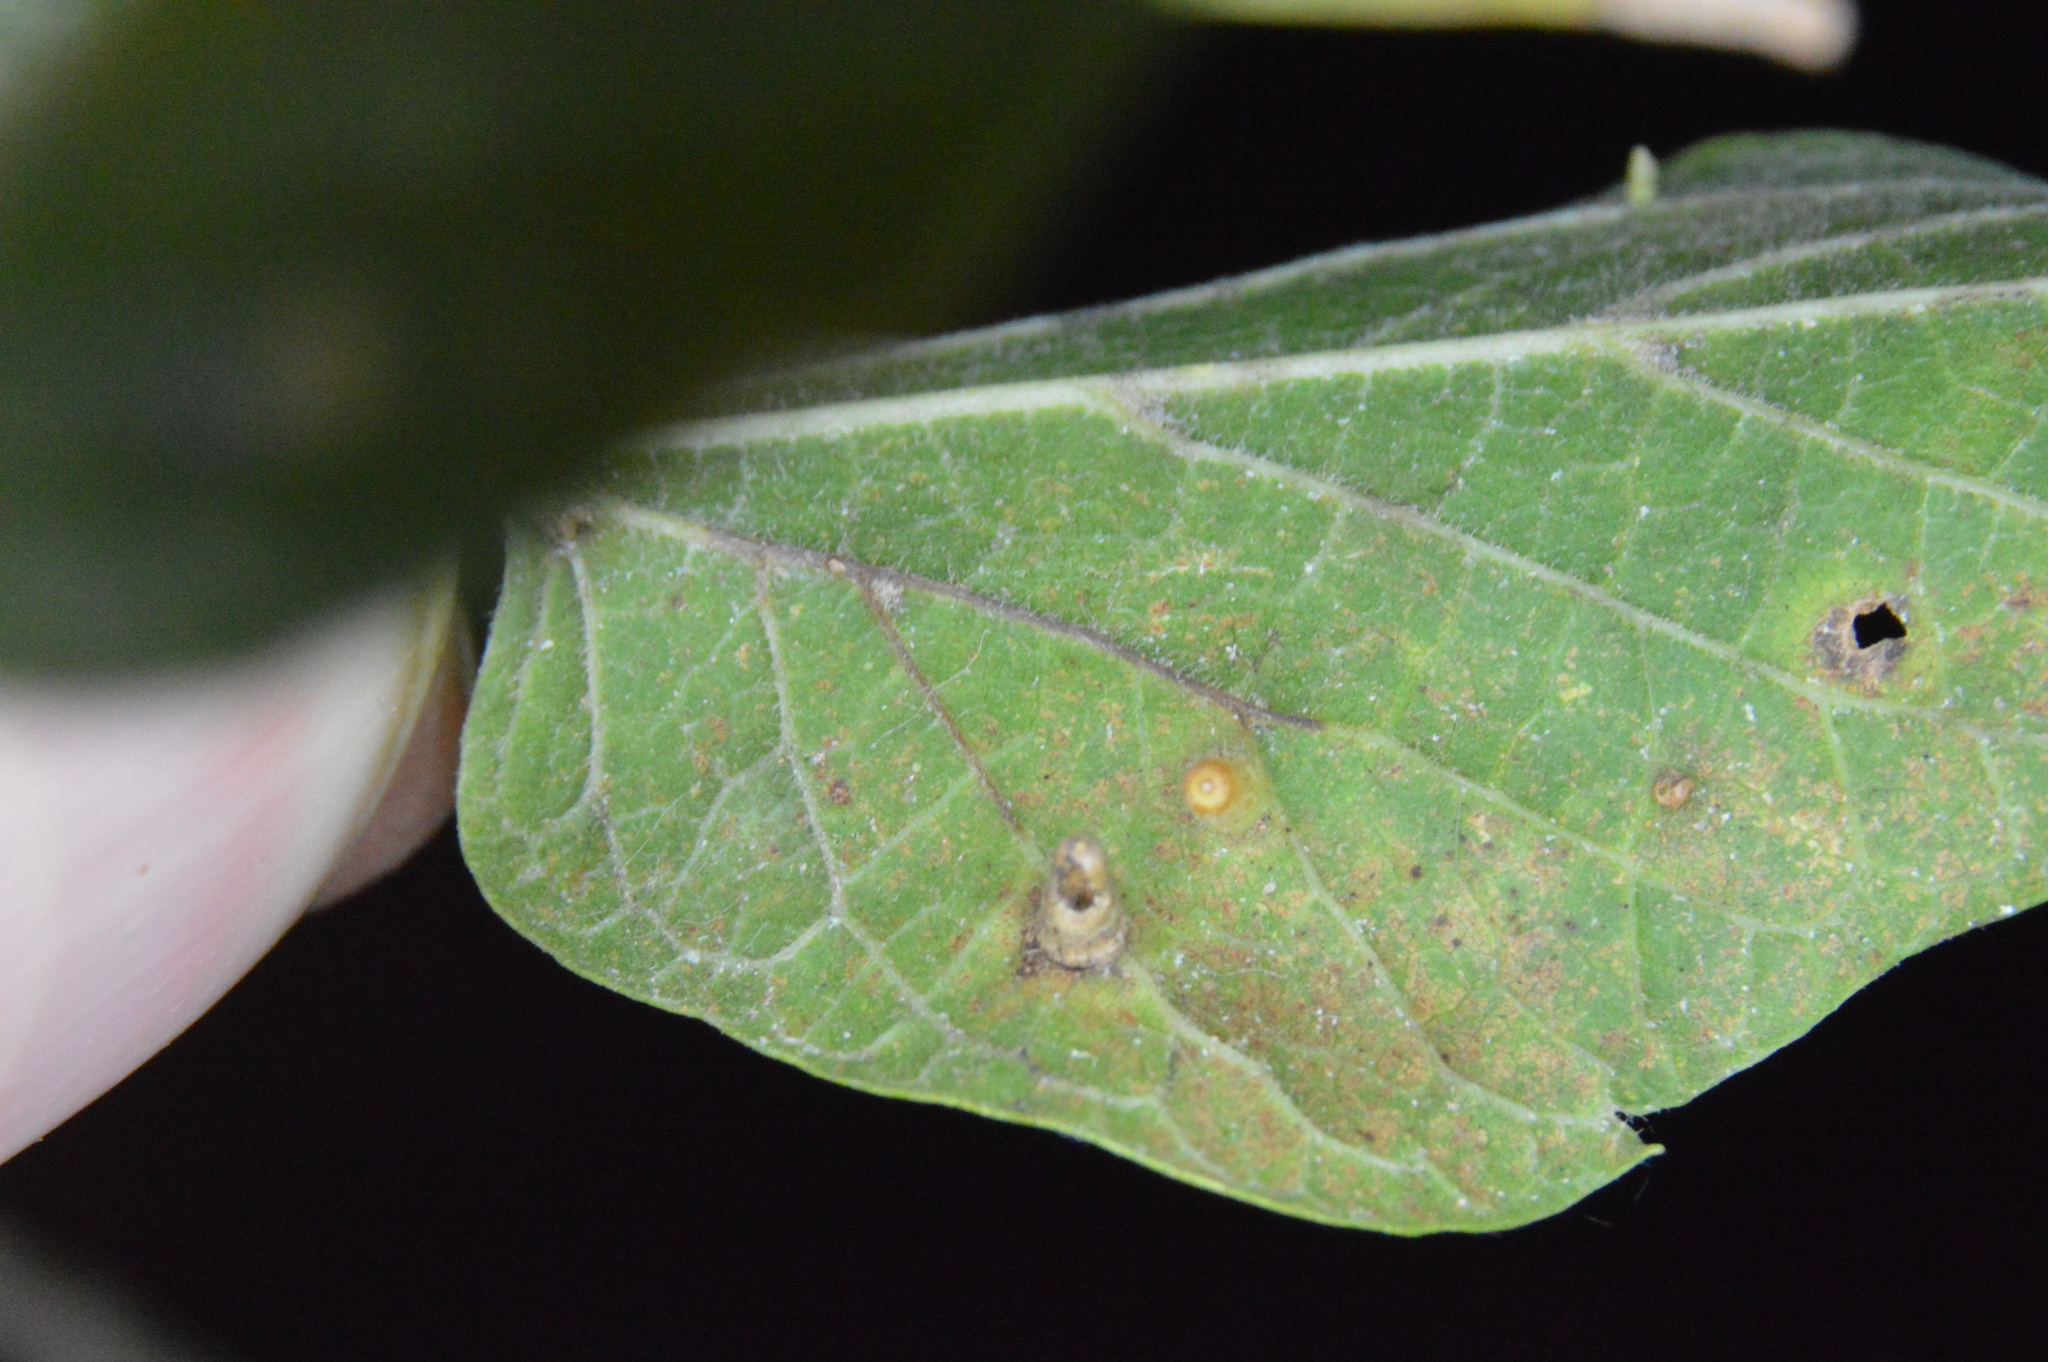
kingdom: Animalia
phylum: Arthropoda
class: Insecta
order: Diptera
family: Cecidomyiidae
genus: Celticecis
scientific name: Celticecis aciculata
